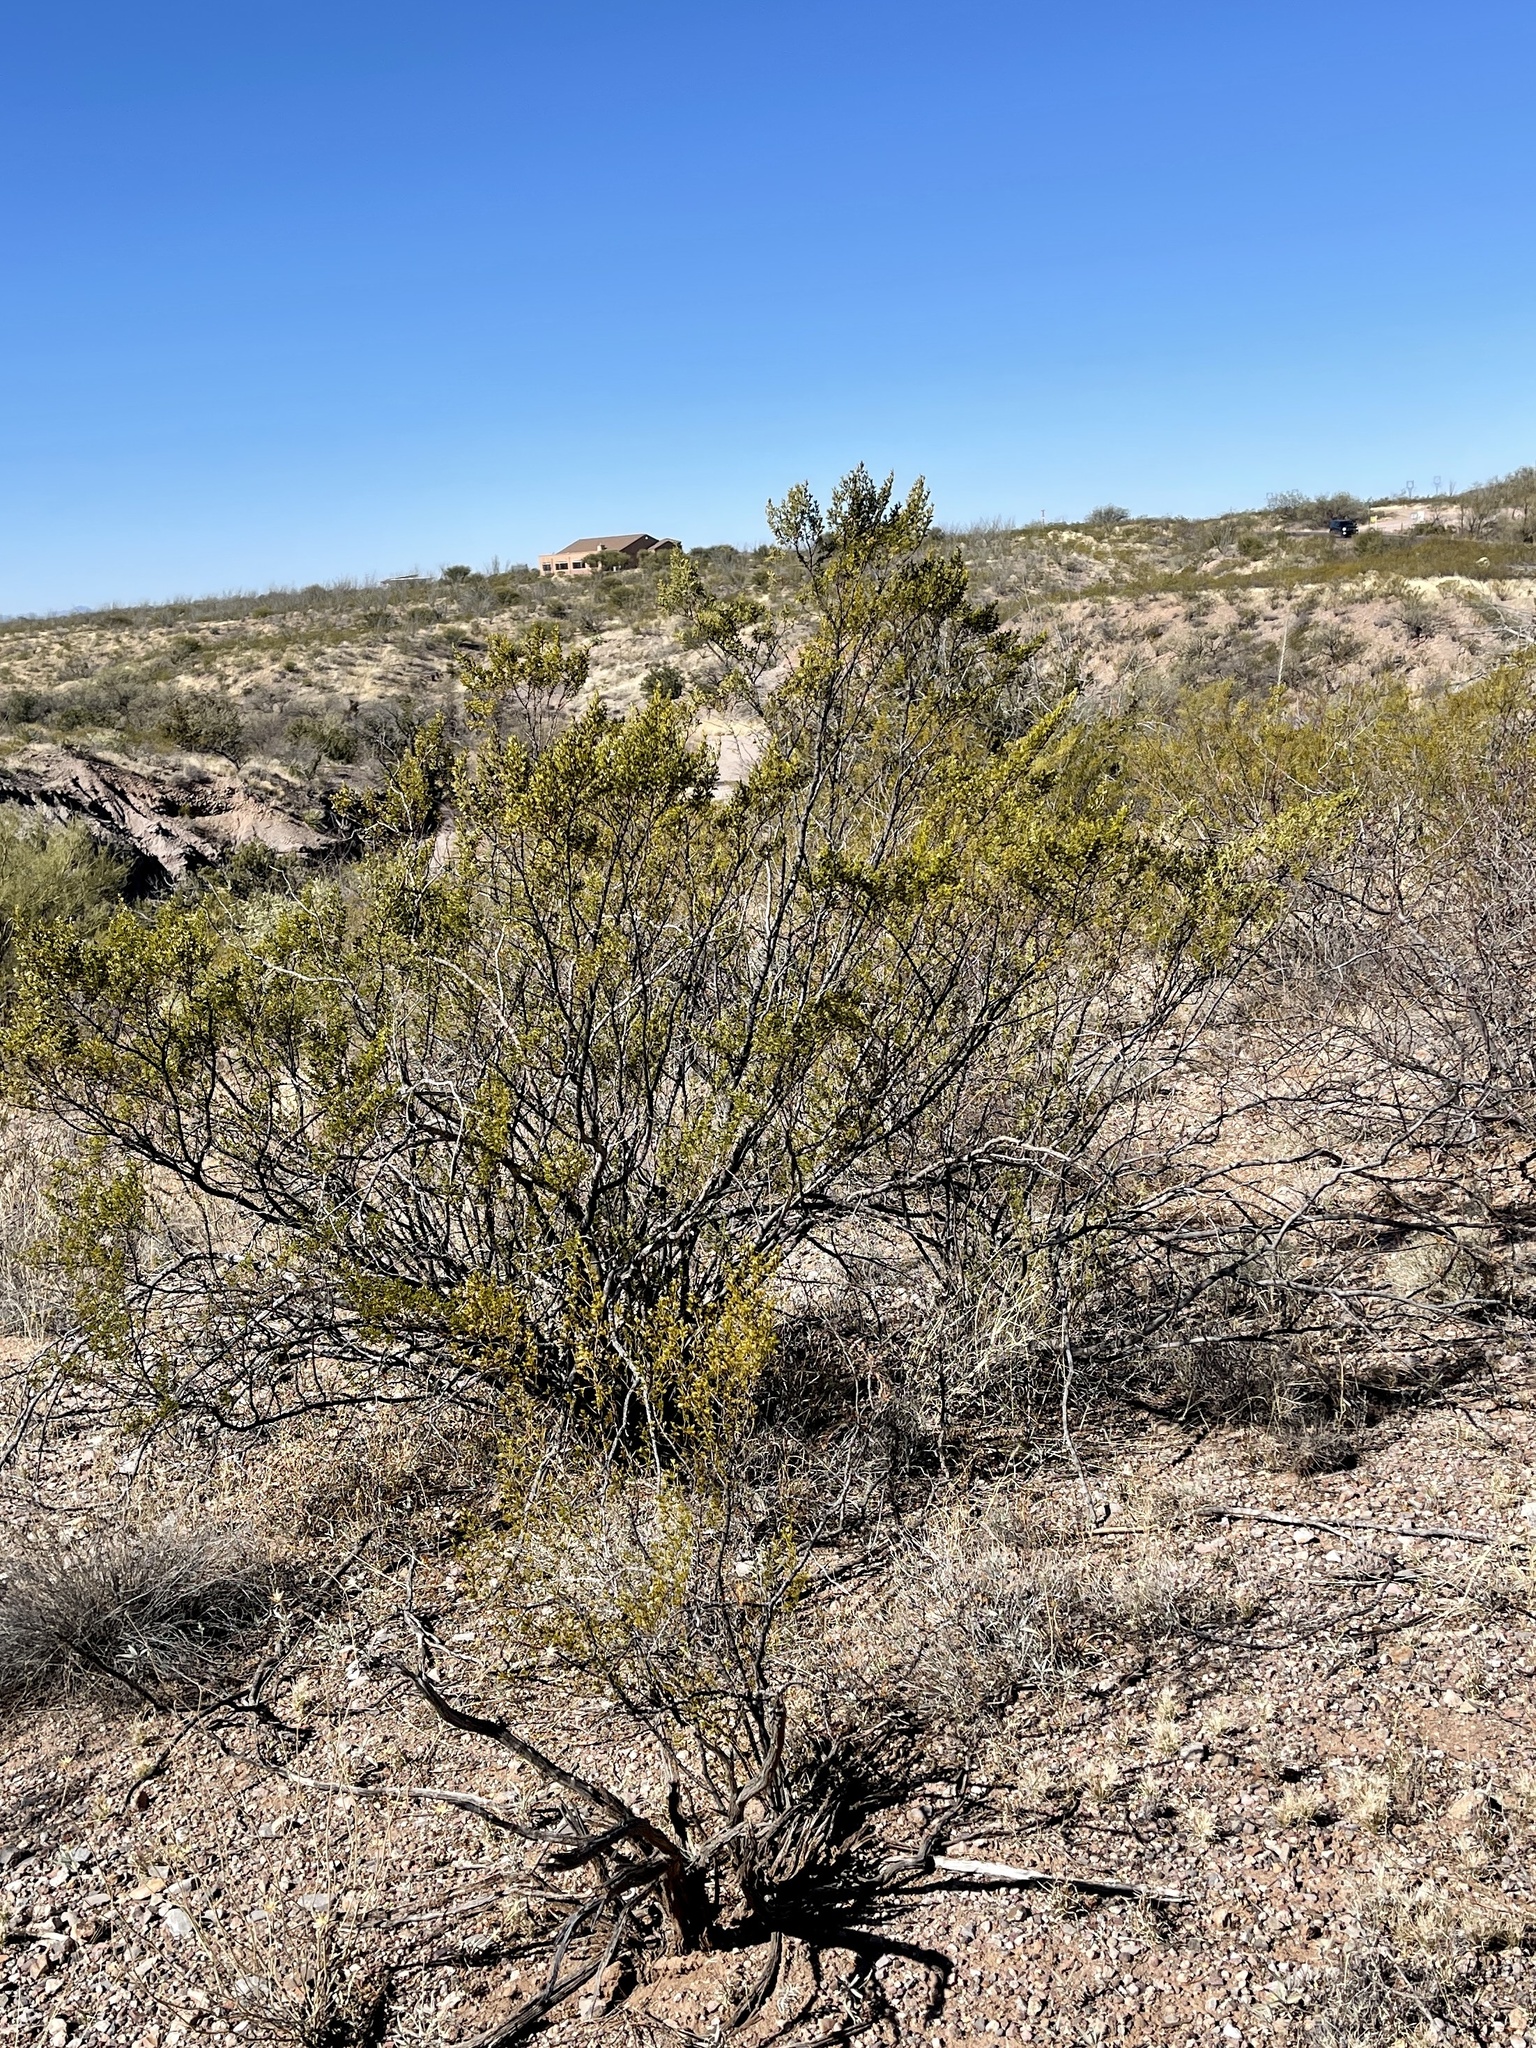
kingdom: Plantae
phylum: Tracheophyta
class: Magnoliopsida
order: Zygophyllales
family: Zygophyllaceae
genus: Larrea
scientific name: Larrea tridentata
